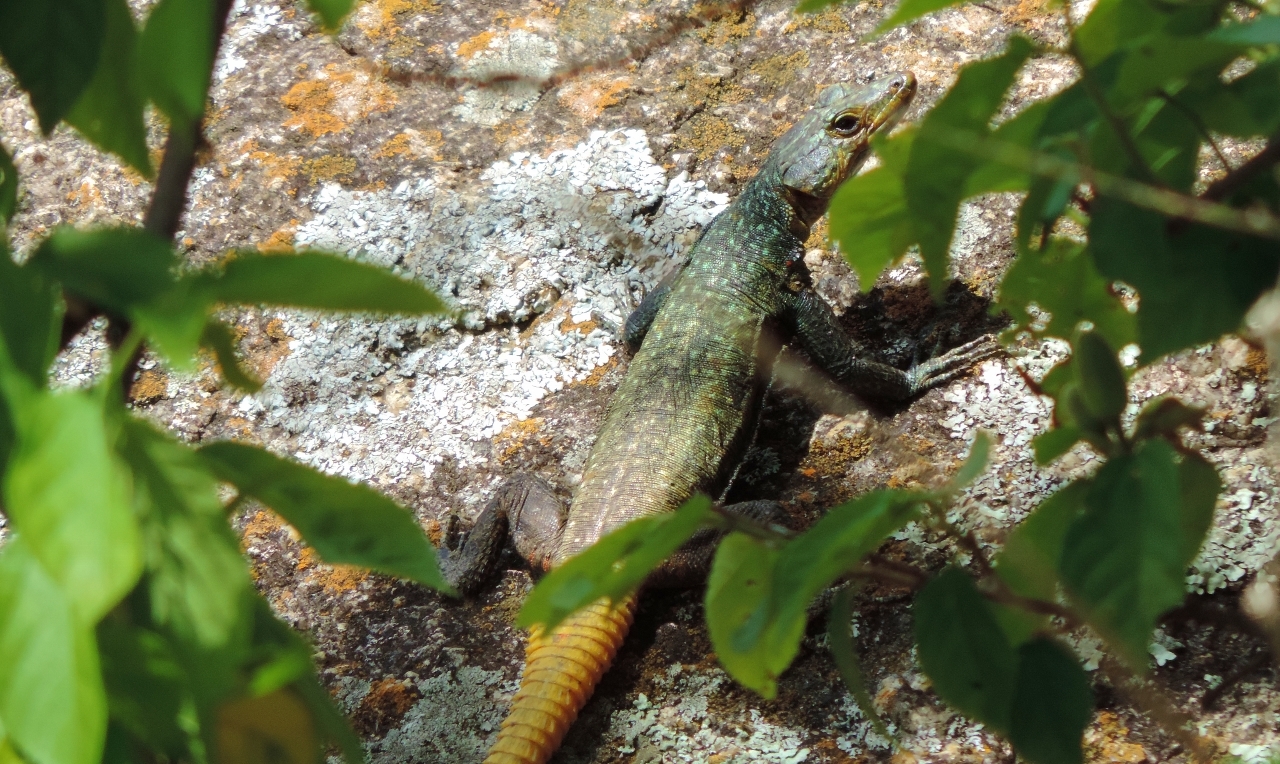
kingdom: Animalia
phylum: Chordata
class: Squamata
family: Cordylidae
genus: Platysaurus
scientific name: Platysaurus intermedius
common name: Common flat lizard
